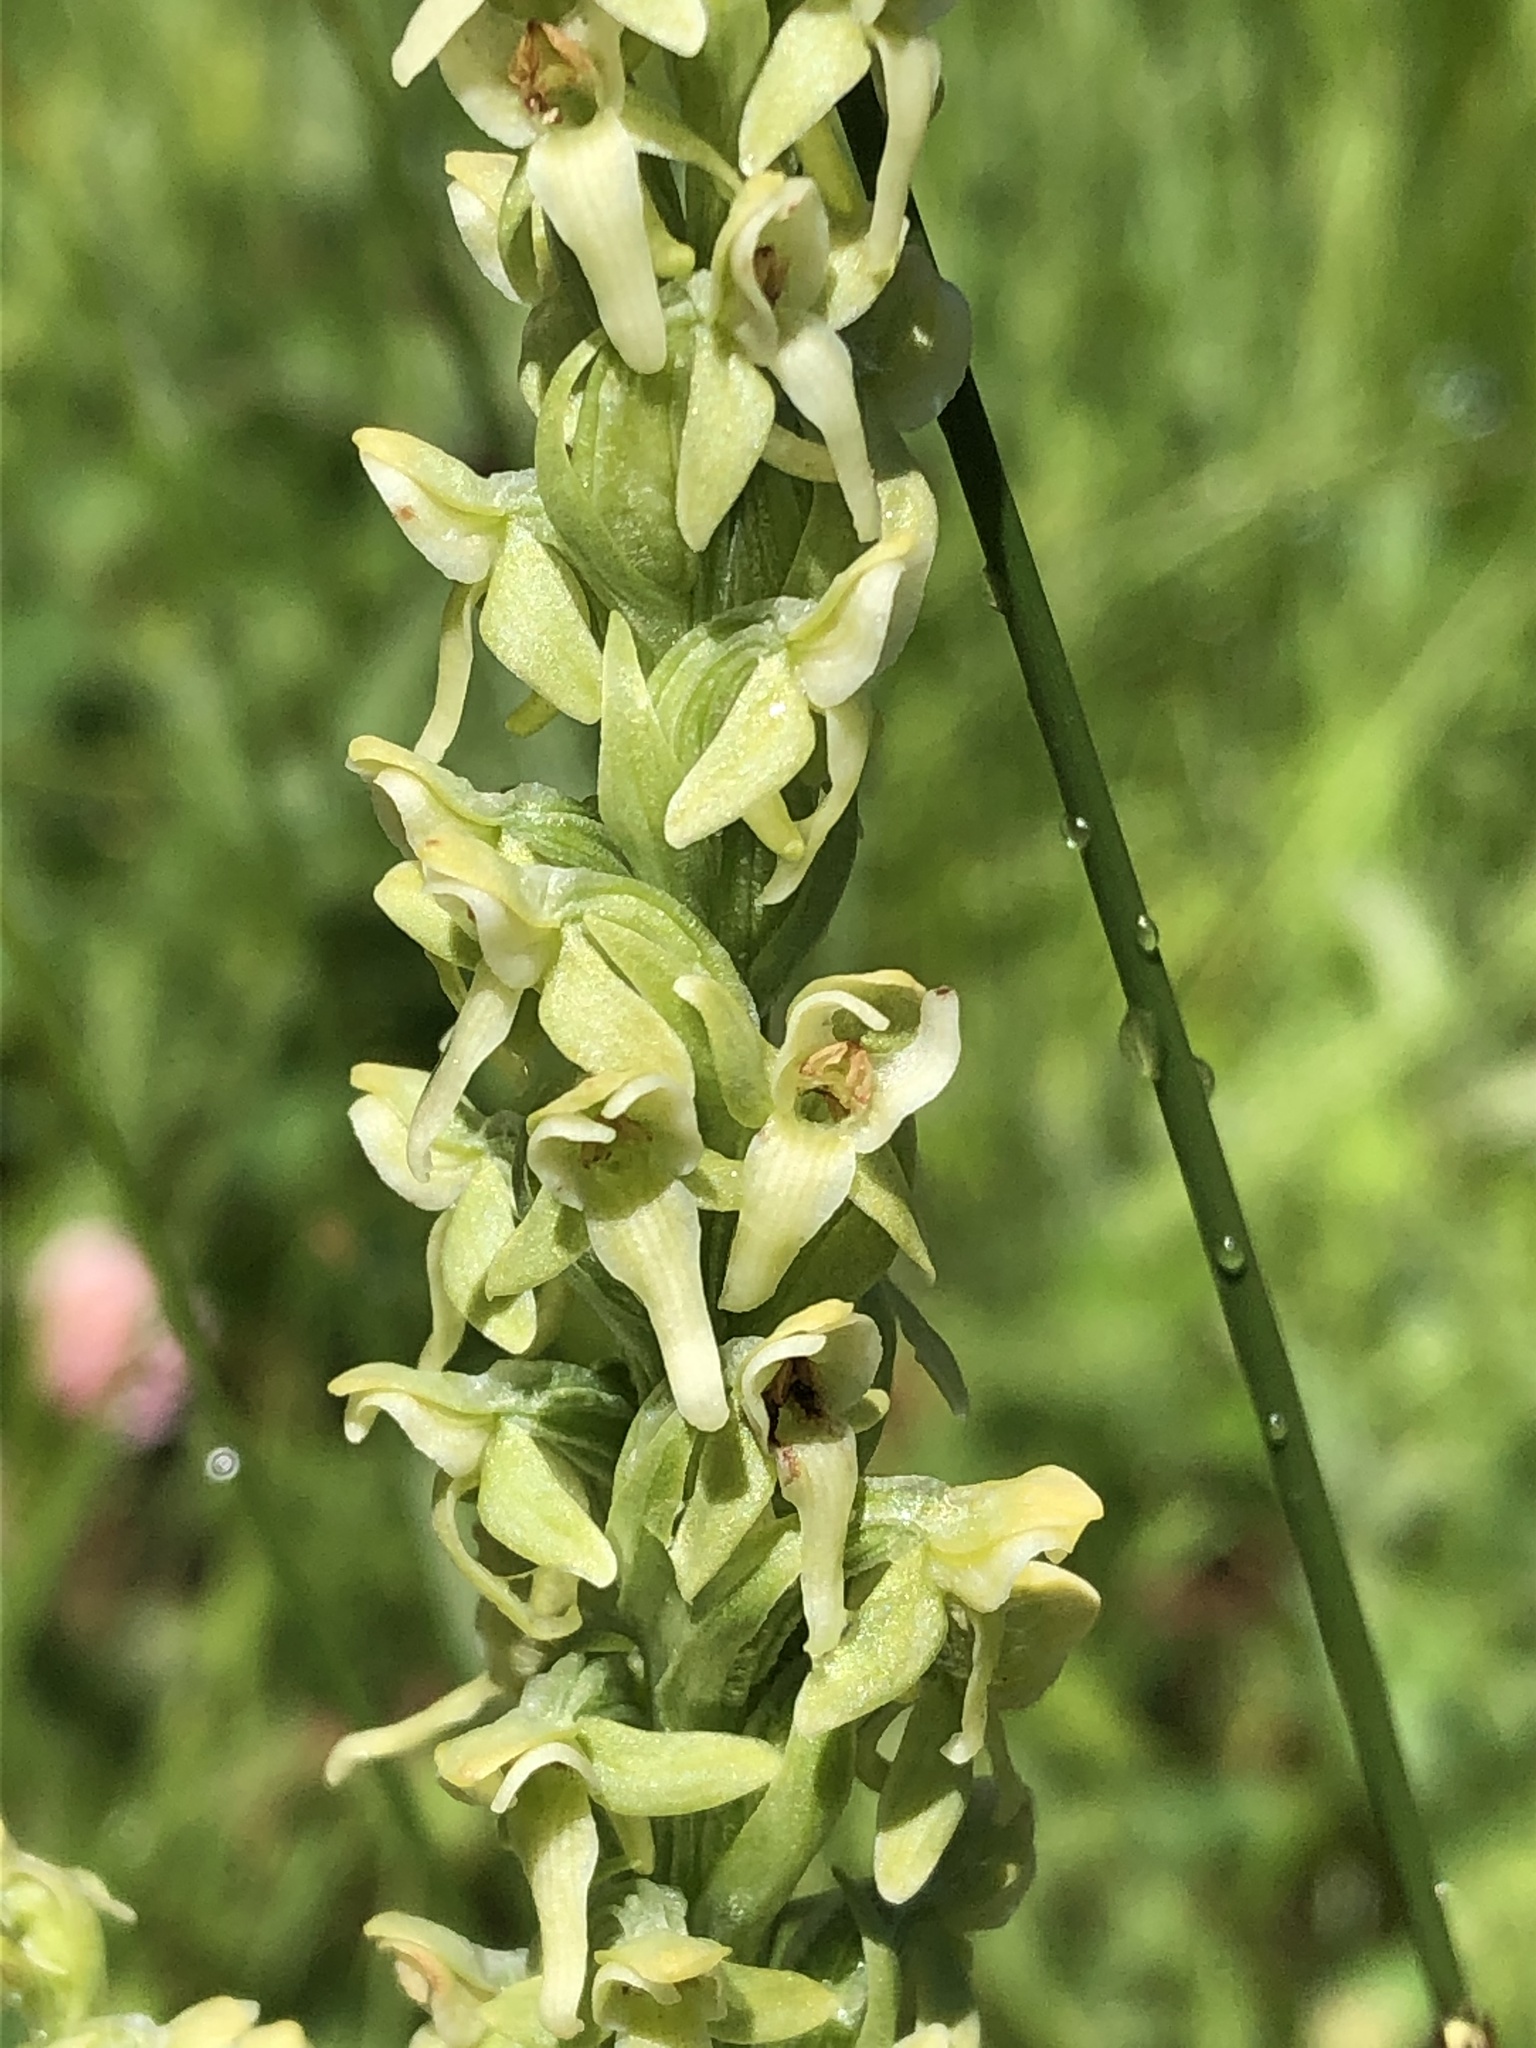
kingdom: Plantae
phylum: Tracheophyta
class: Liliopsida
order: Asparagales
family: Orchidaceae
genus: Platanthera
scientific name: Platanthera huronensis
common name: Fragrant green orchid
